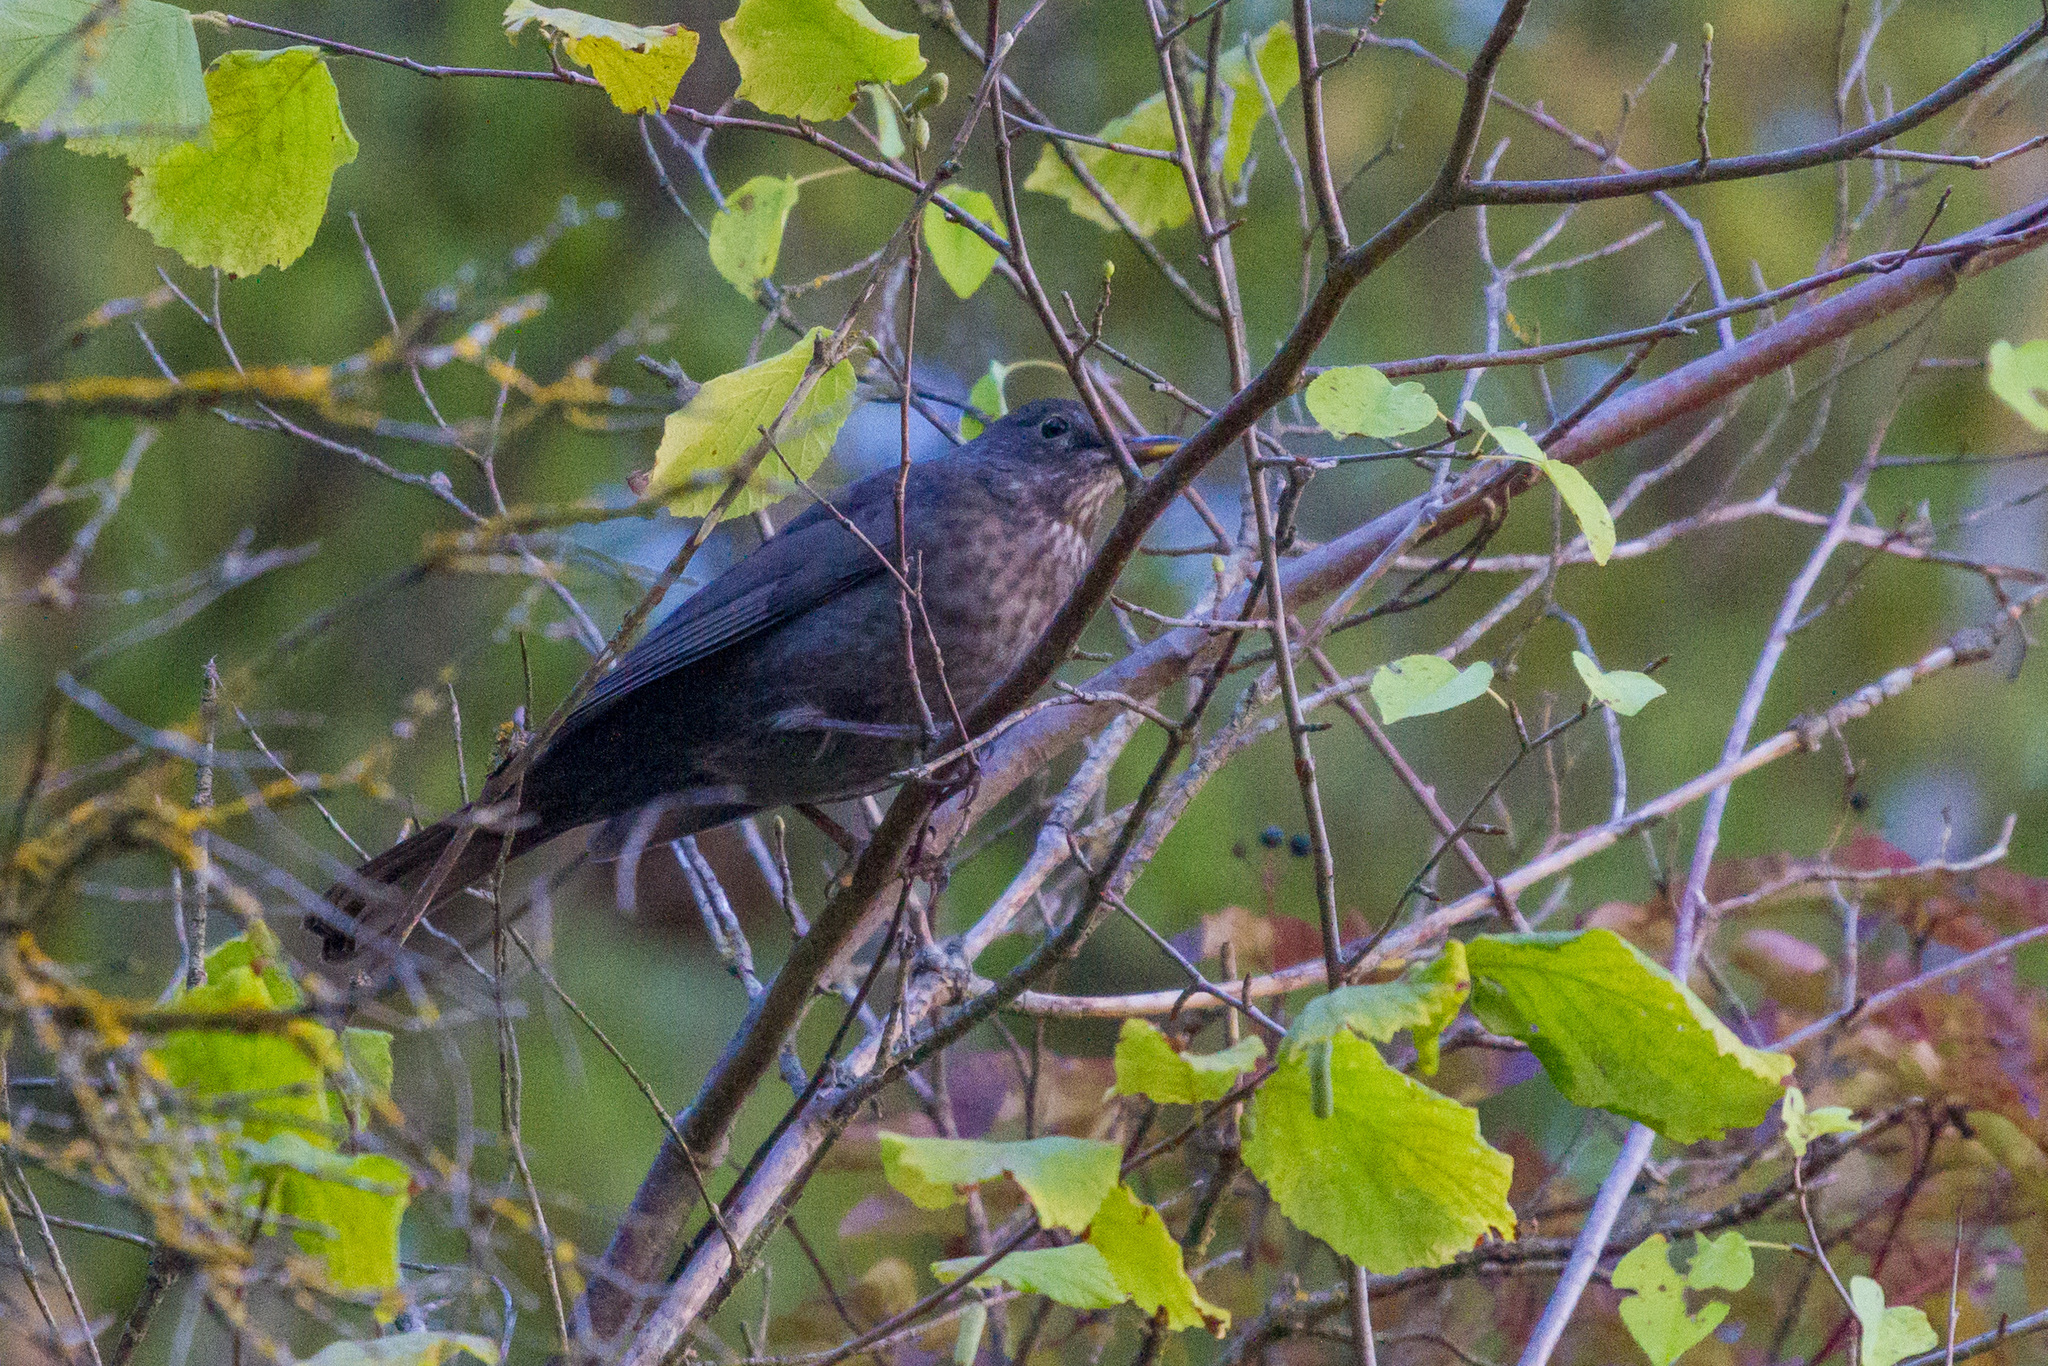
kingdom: Animalia
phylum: Chordata
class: Aves
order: Passeriformes
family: Turdidae
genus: Turdus
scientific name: Turdus merula
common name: Common blackbird
